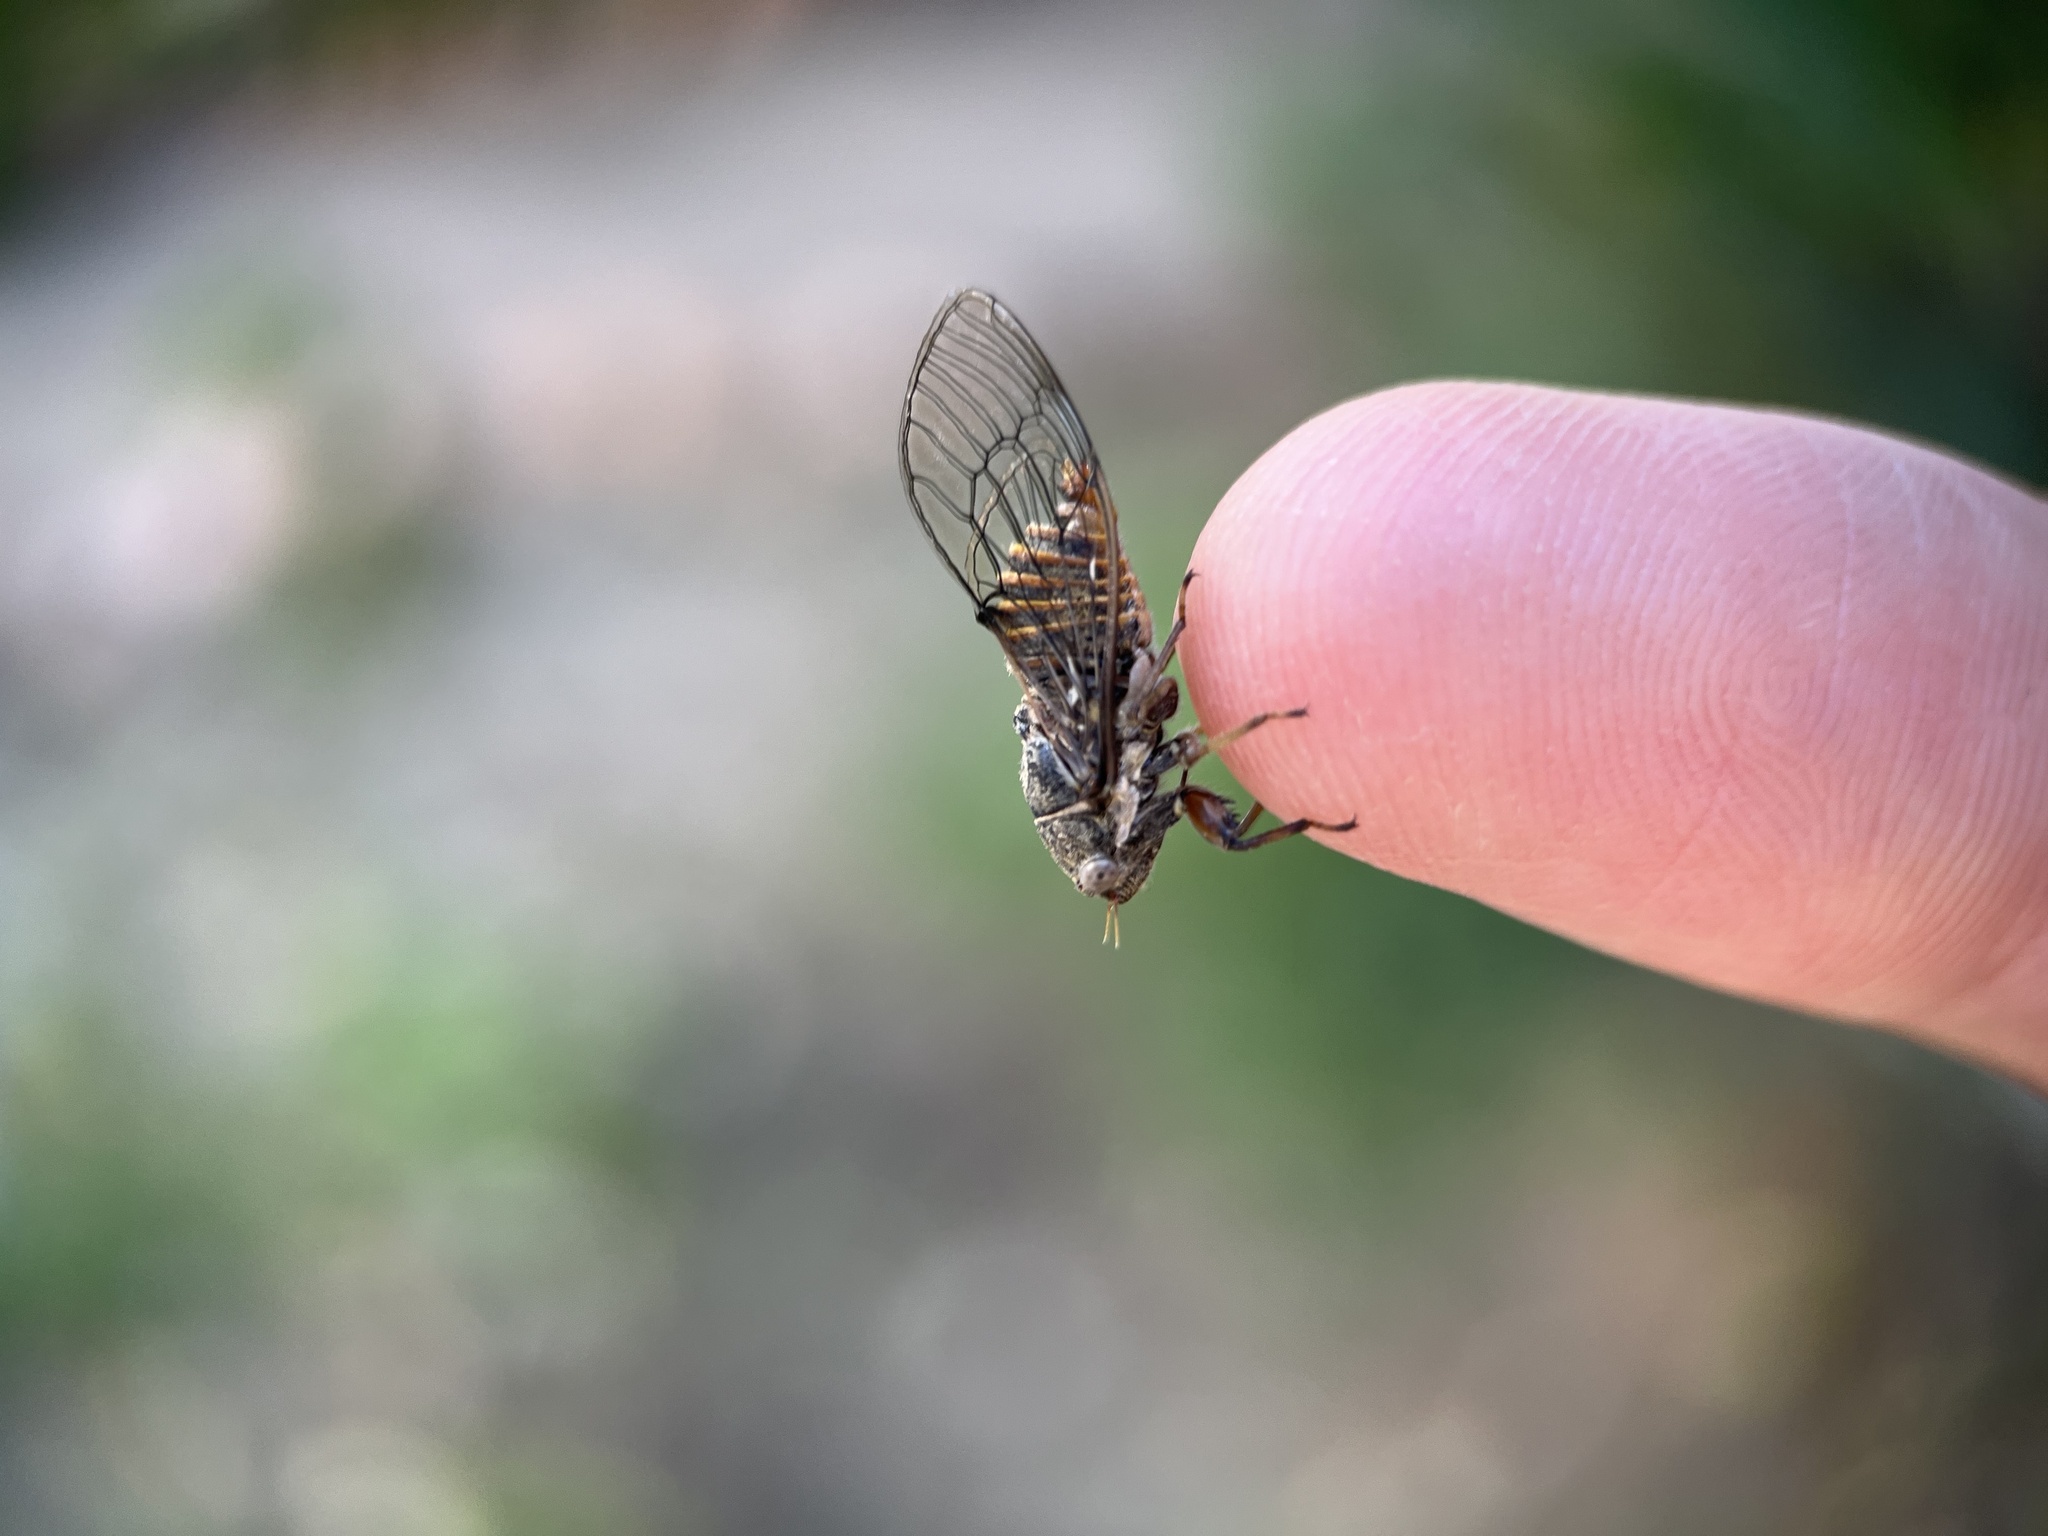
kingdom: Animalia
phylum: Arthropoda
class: Insecta
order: Hemiptera
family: Cicadidae
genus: Pagiphora
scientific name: Pagiphora annulata
